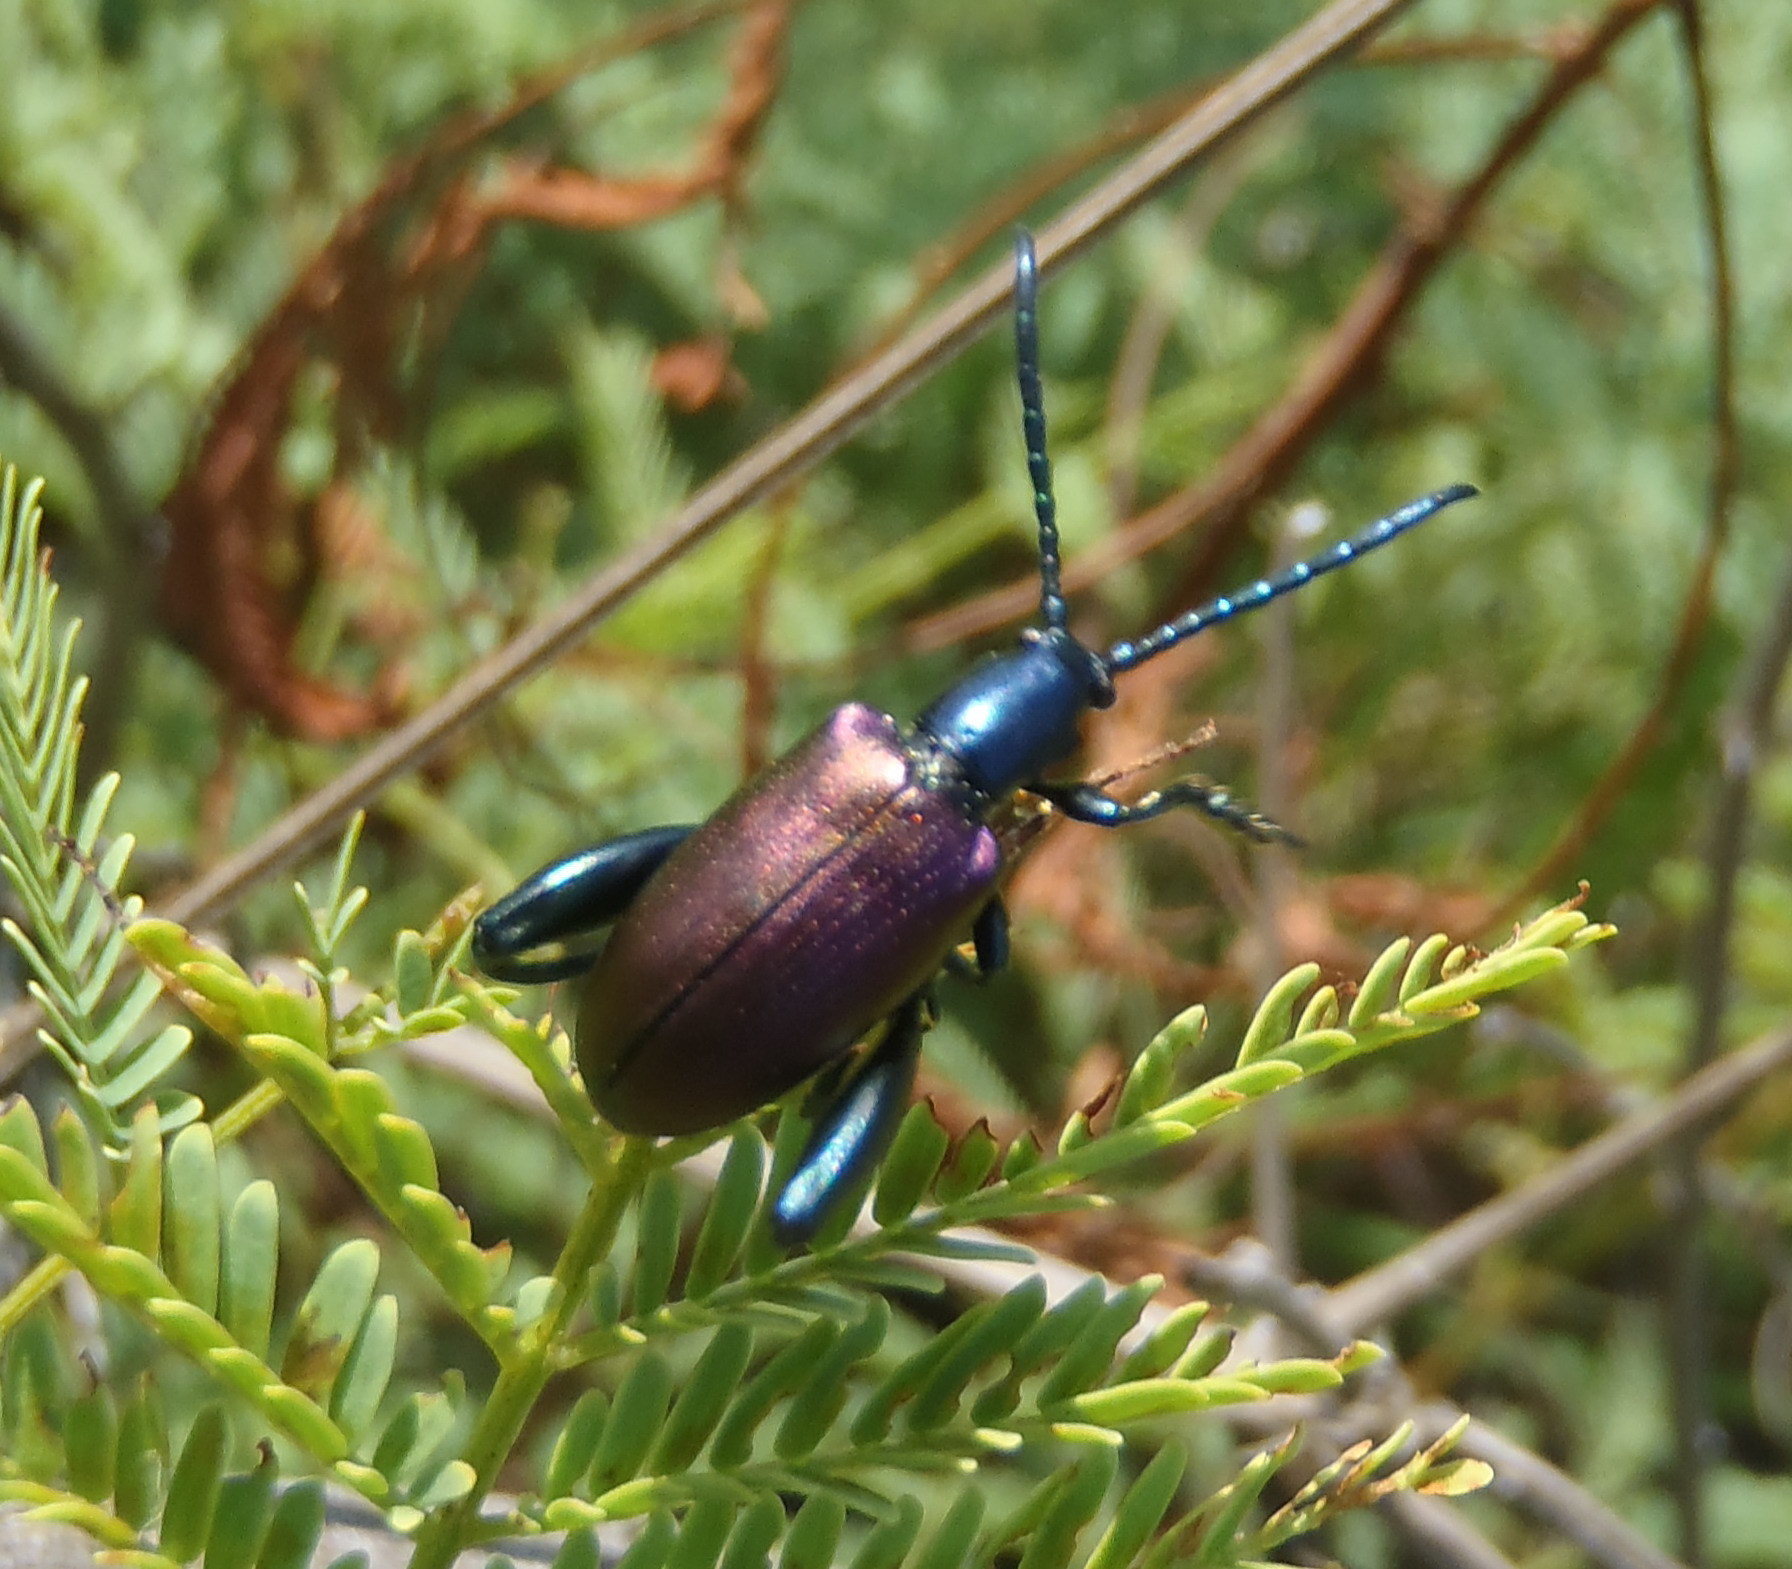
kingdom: Animalia
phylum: Arthropoda
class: Insecta
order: Coleoptera
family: Chrysomelidae
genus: Sagra
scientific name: Sagra
